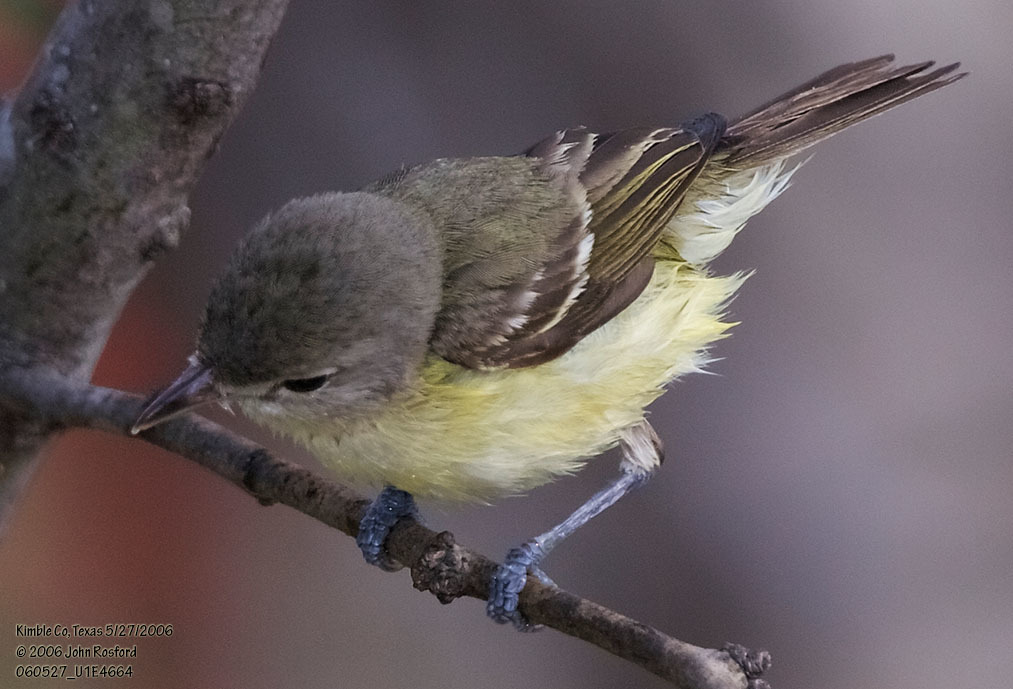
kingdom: Animalia
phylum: Chordata
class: Aves
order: Passeriformes
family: Vireonidae
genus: Vireo
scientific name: Vireo bellii
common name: Bell's vireo
